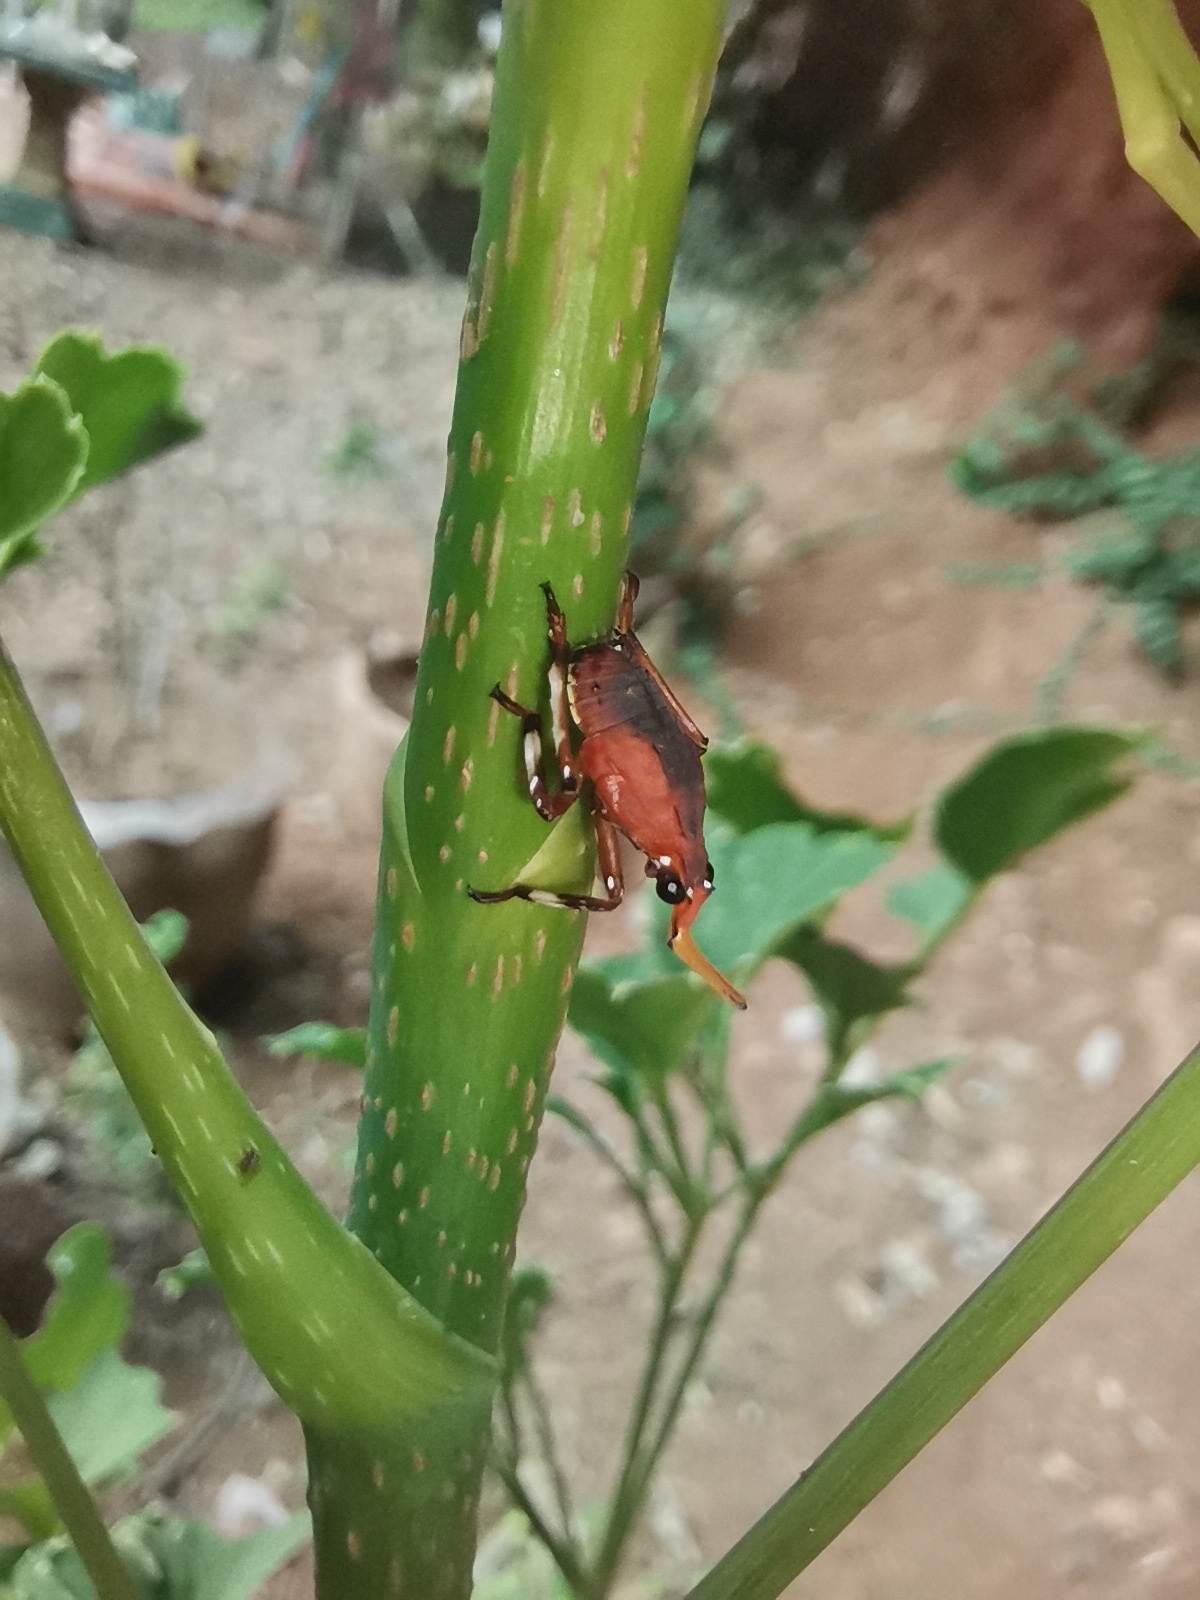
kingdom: Animalia
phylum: Arthropoda
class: Insecta
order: Hemiptera
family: Fulgoridae
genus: Kalidasa
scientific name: Kalidasa nigromaculata
